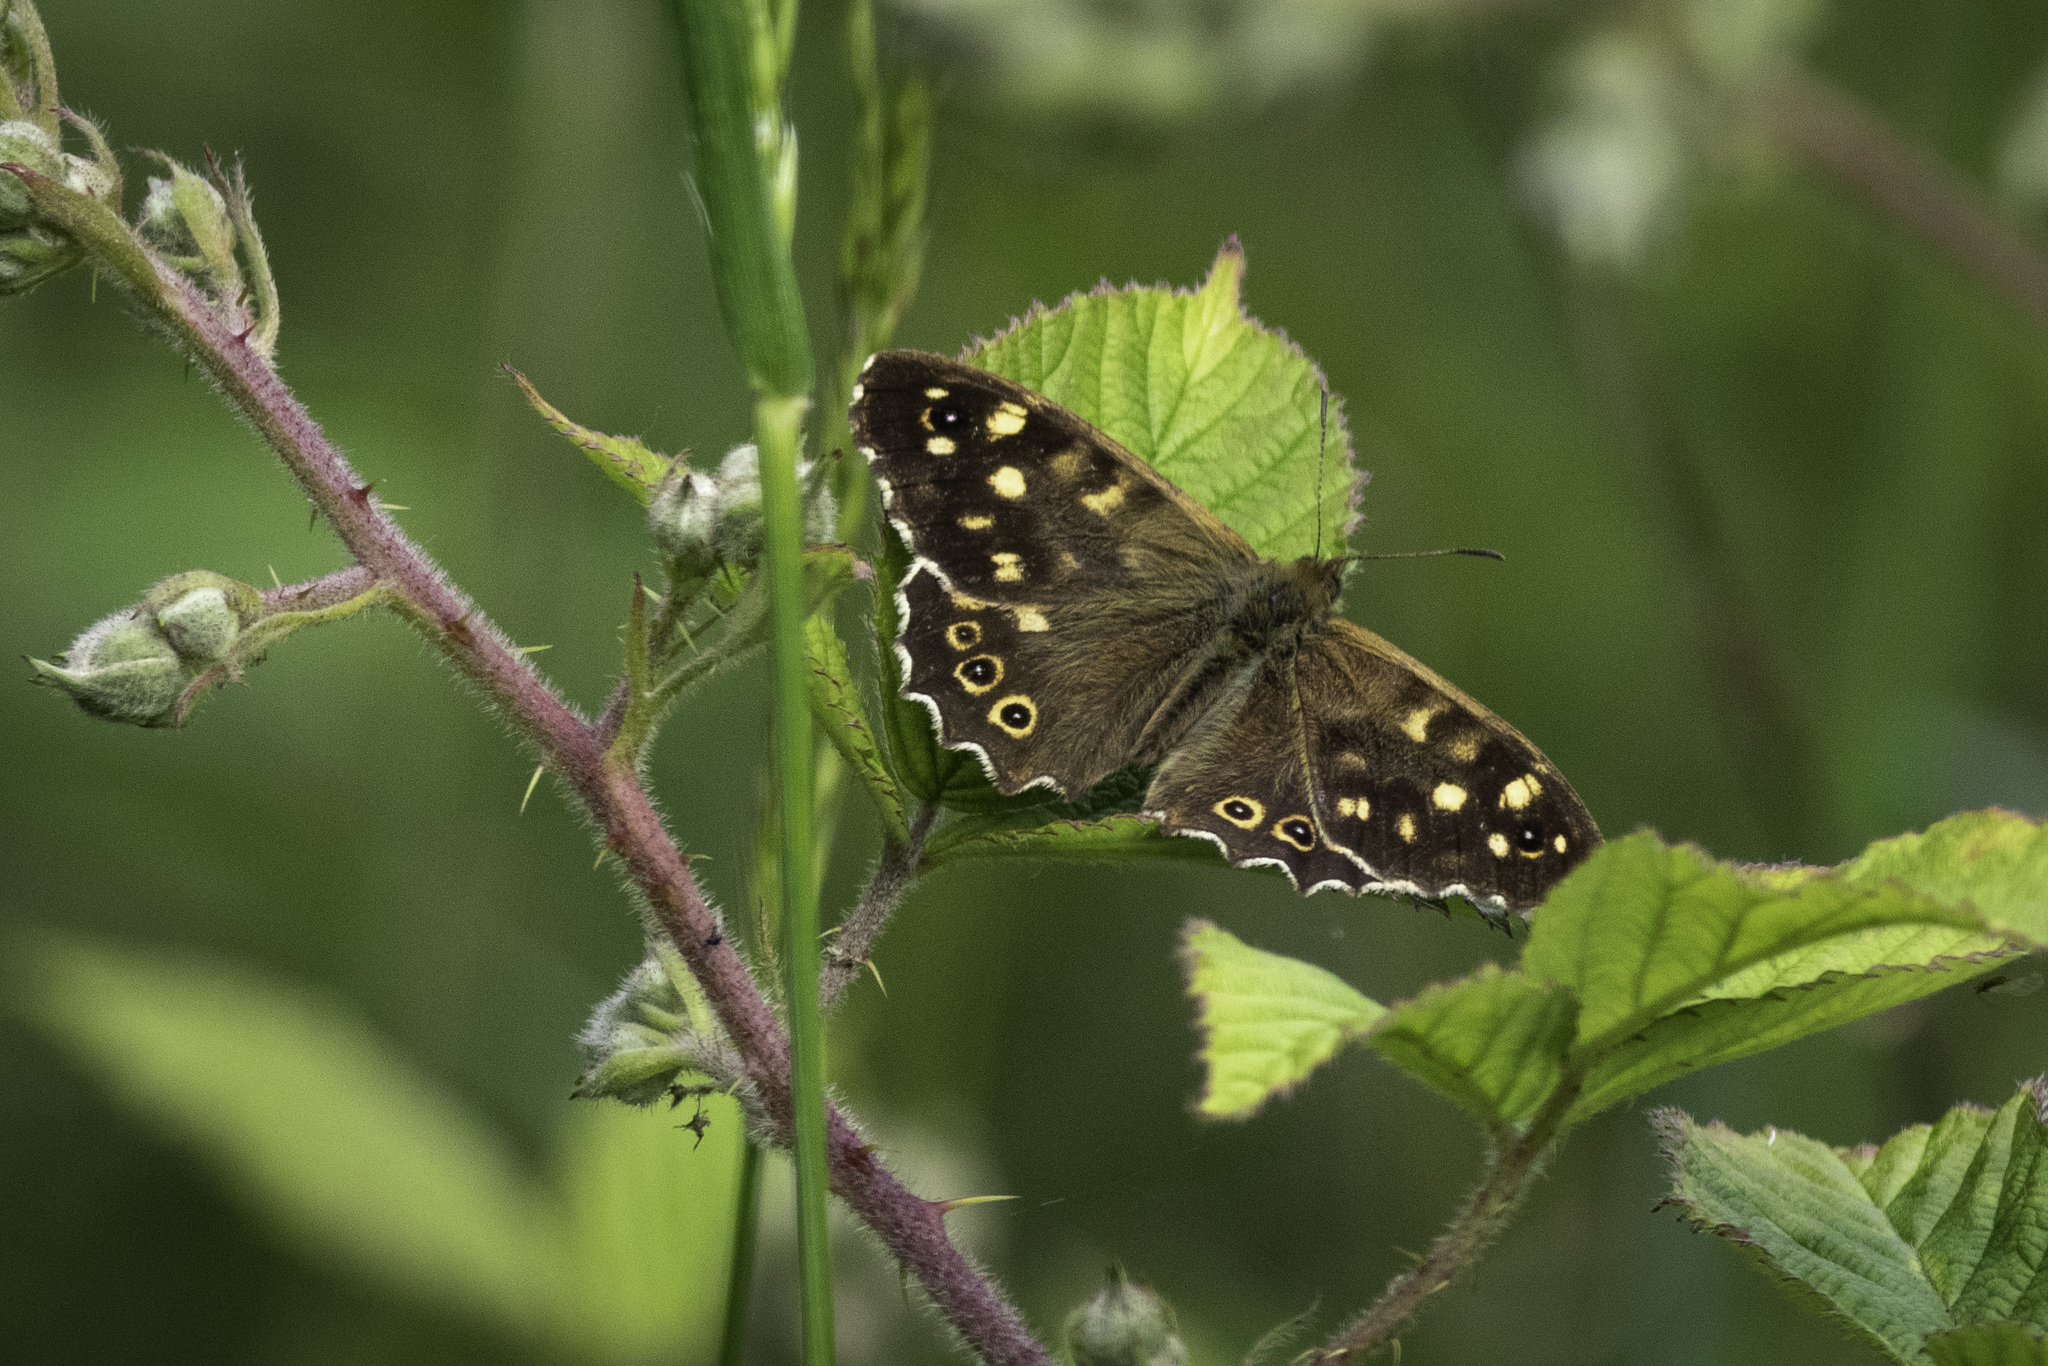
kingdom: Animalia
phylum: Arthropoda
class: Insecta
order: Lepidoptera
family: Nymphalidae
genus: Pararge
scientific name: Pararge aegeria
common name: Speckled wood
